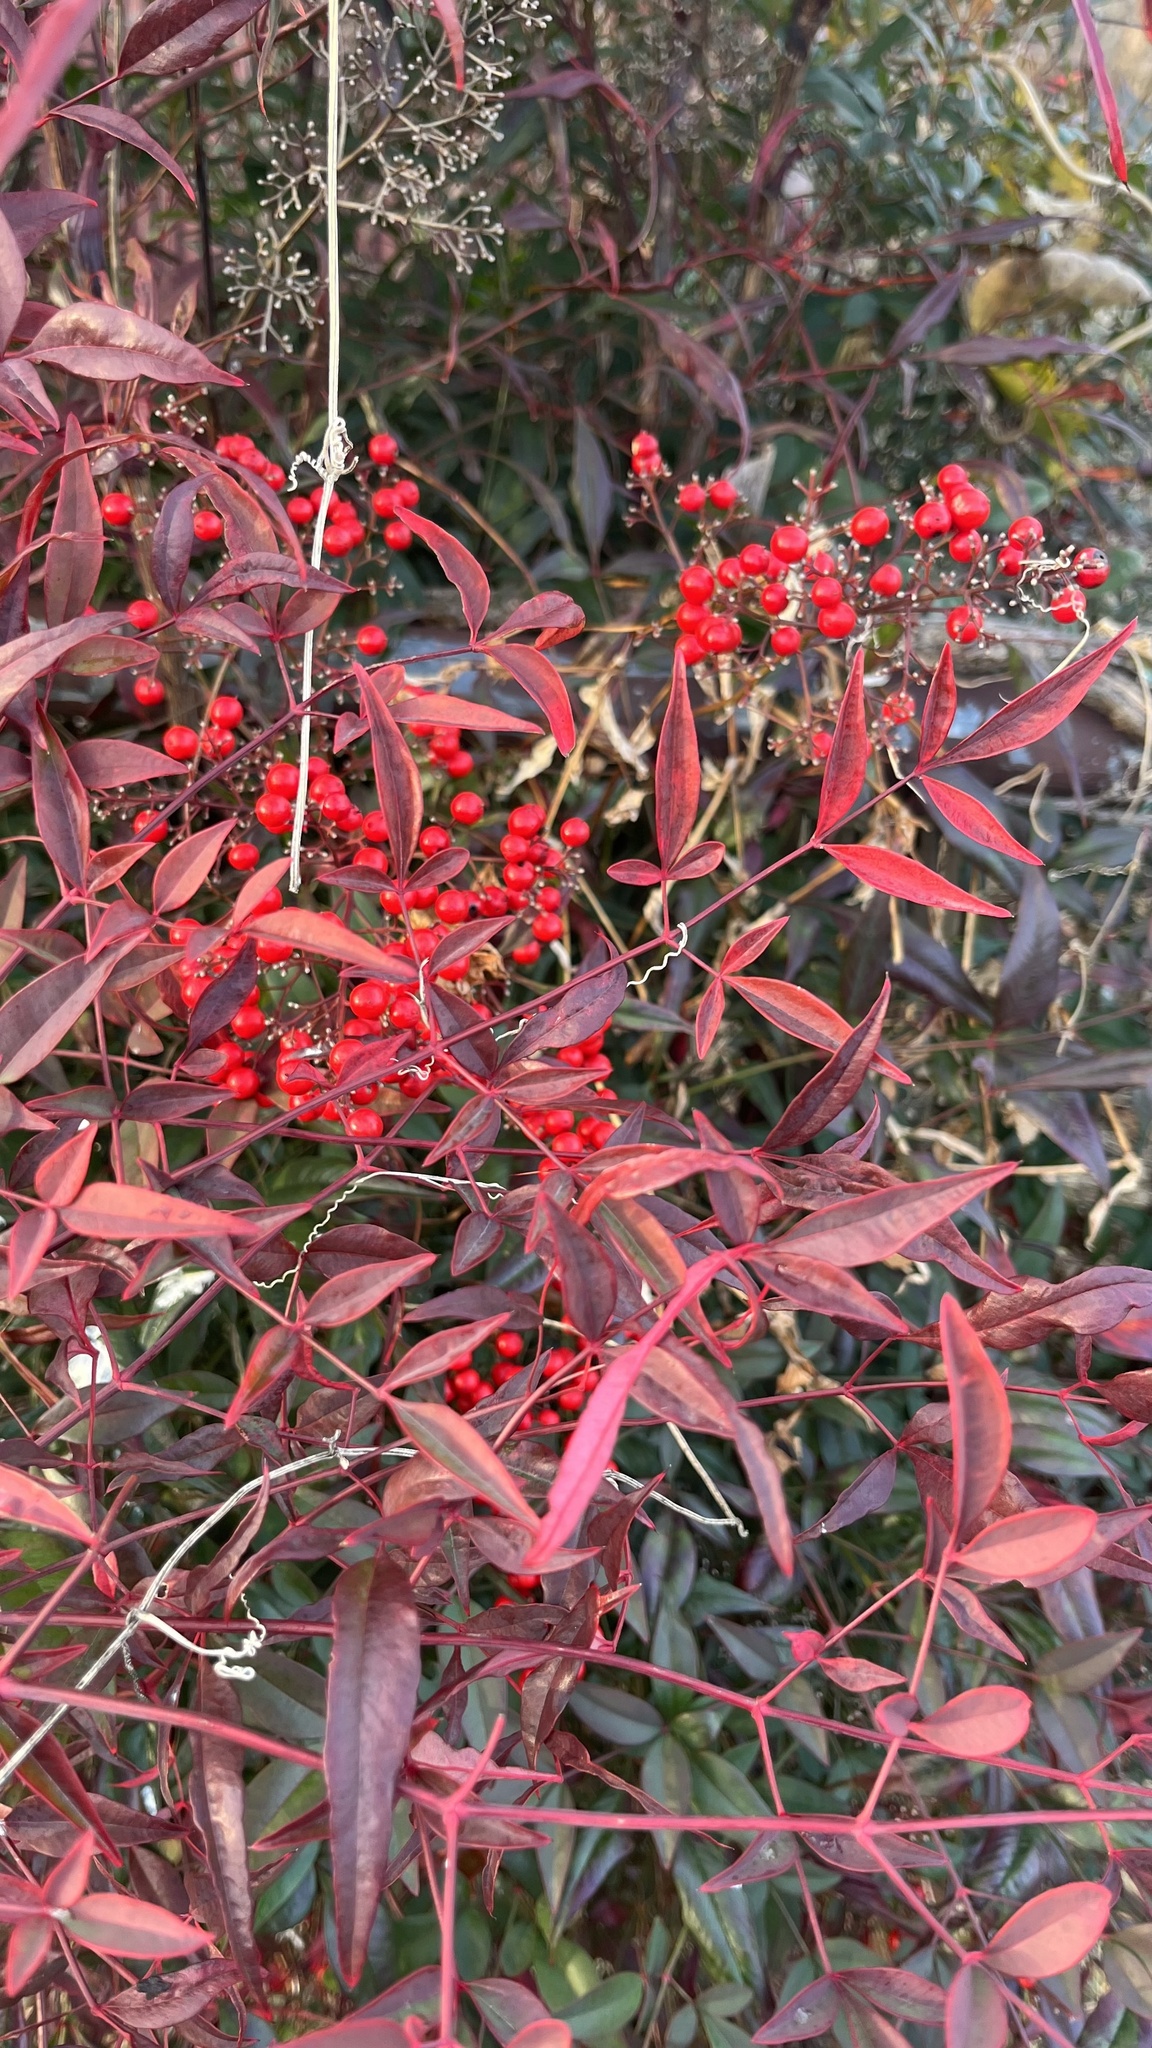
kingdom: Plantae
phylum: Tracheophyta
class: Magnoliopsida
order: Ranunculales
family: Berberidaceae
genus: Nandina
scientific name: Nandina domestica
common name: Sacred bamboo
